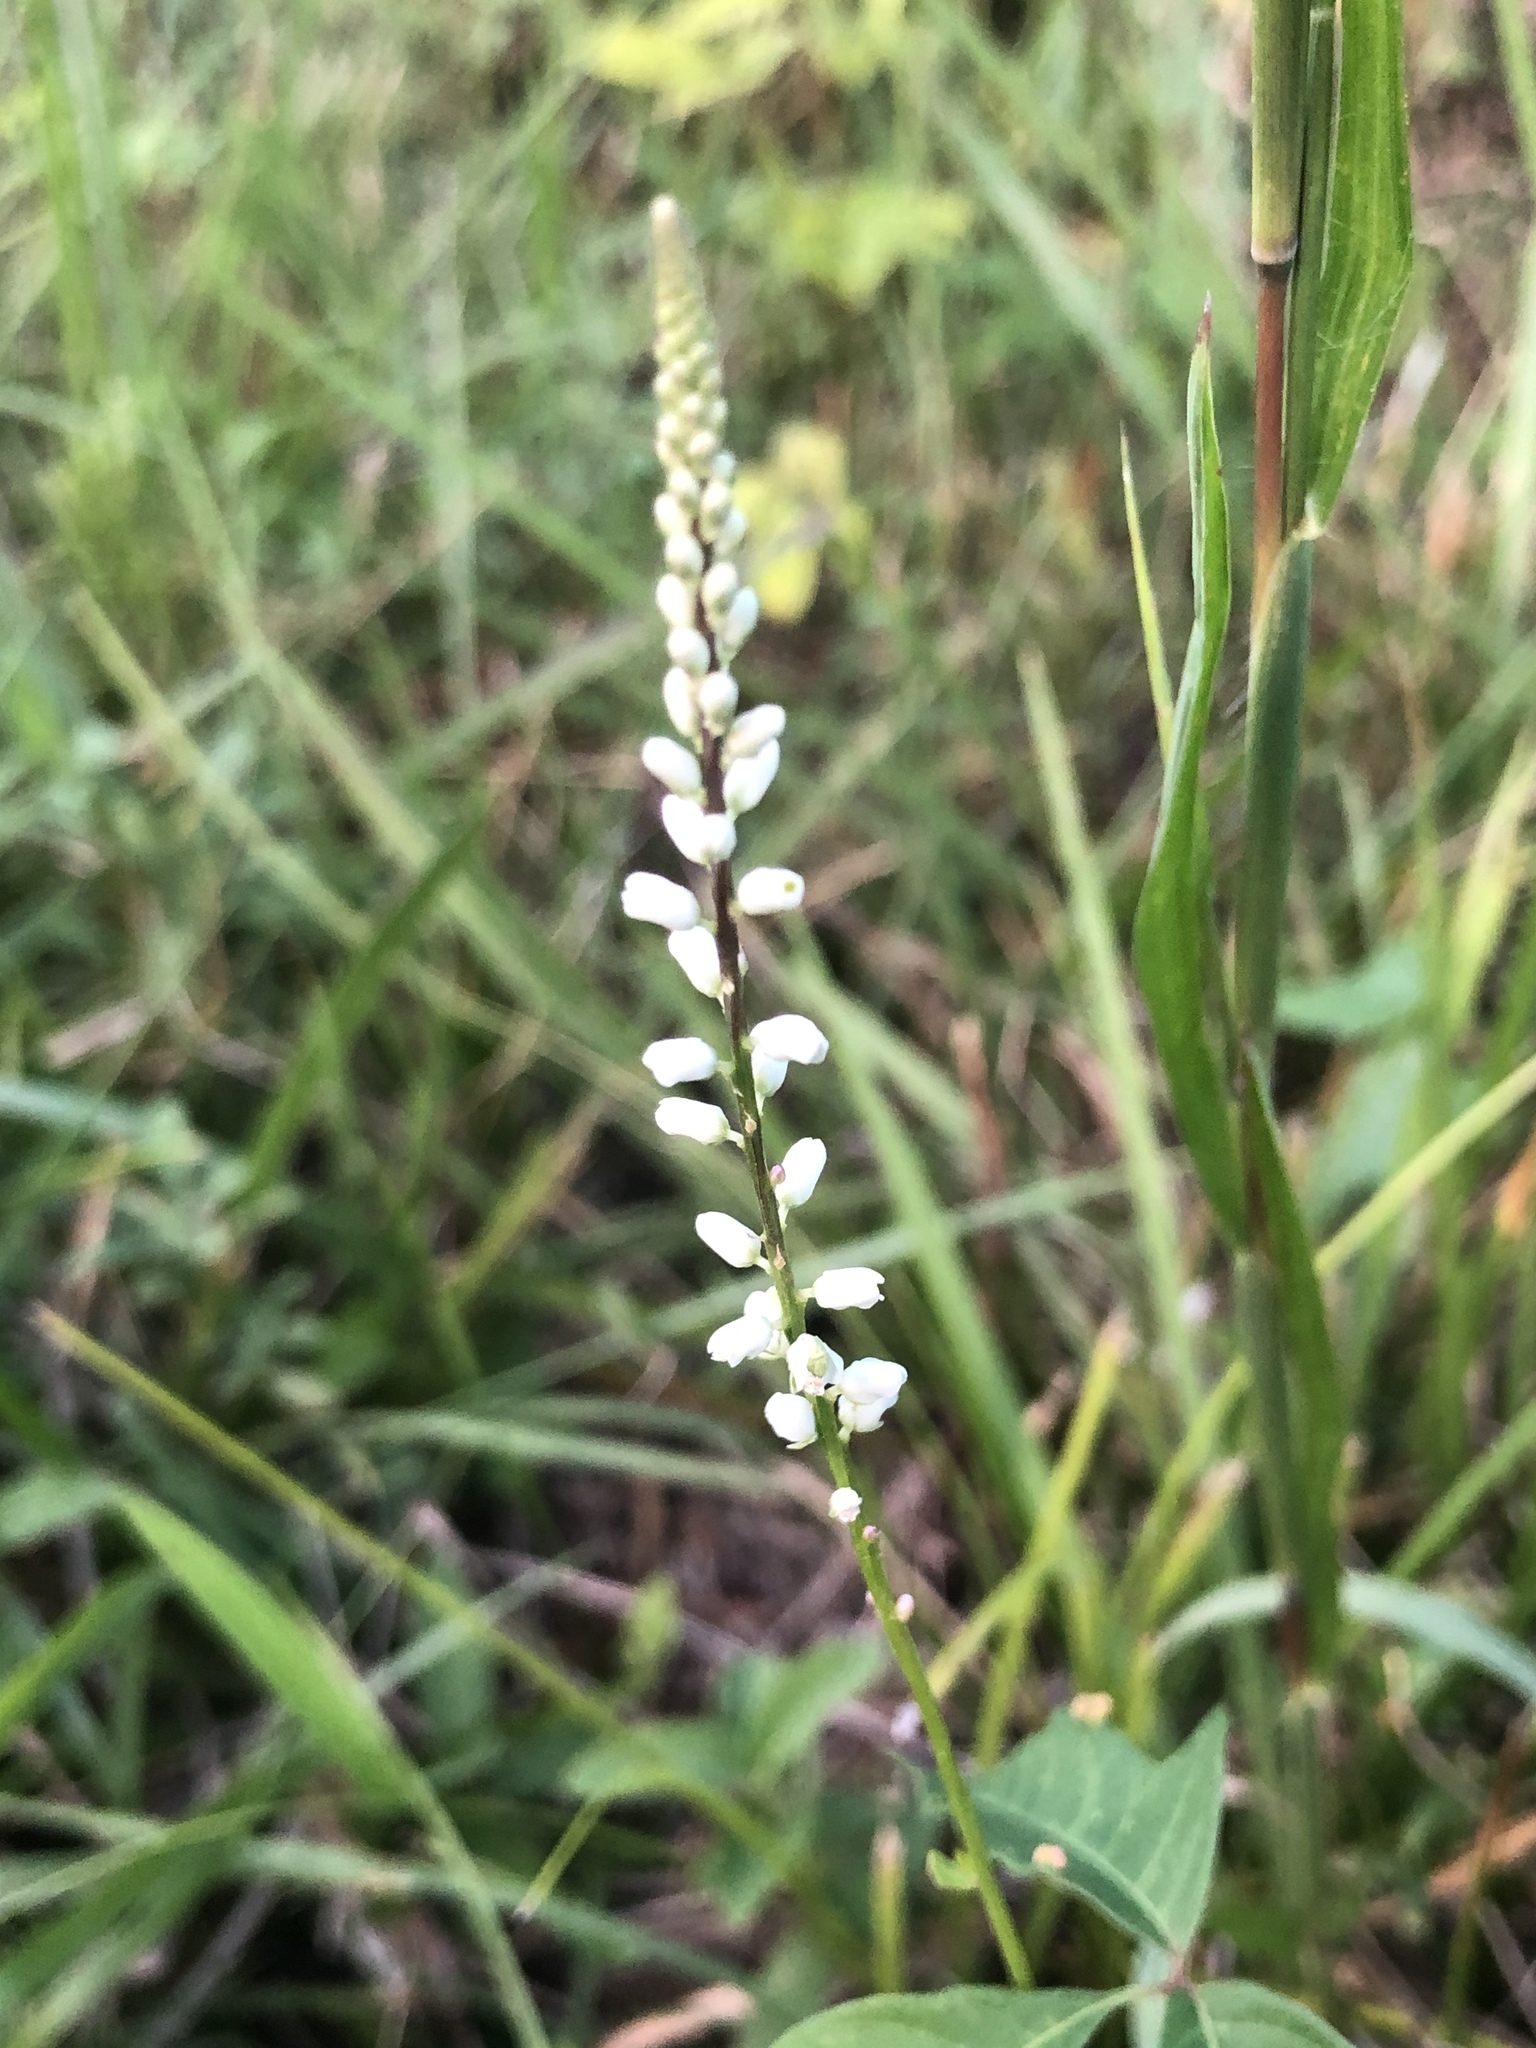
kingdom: Plantae
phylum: Tracheophyta
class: Magnoliopsida
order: Fabales
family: Polygalaceae
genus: Polygala
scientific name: Polygala boykinii
